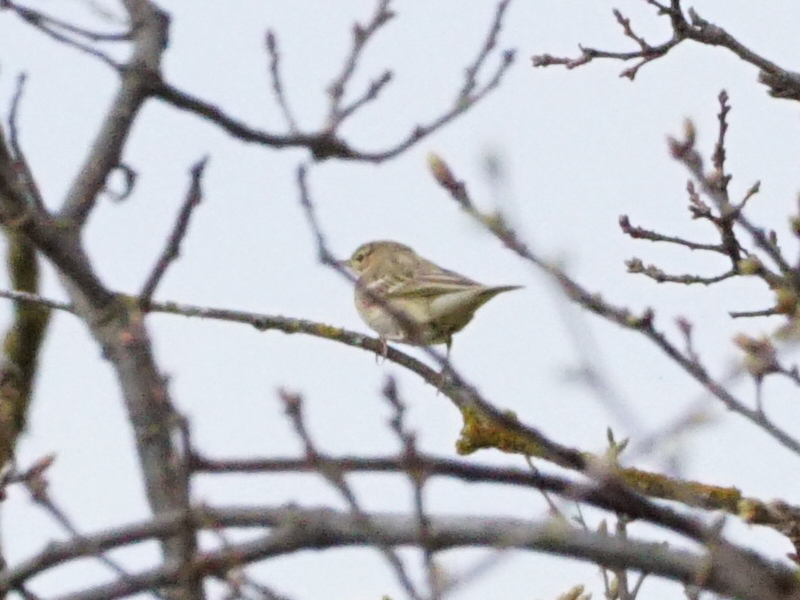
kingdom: Animalia
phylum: Chordata
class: Aves
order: Passeriformes
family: Motacillidae
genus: Anthus
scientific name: Anthus trivialis
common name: Tree pipit
